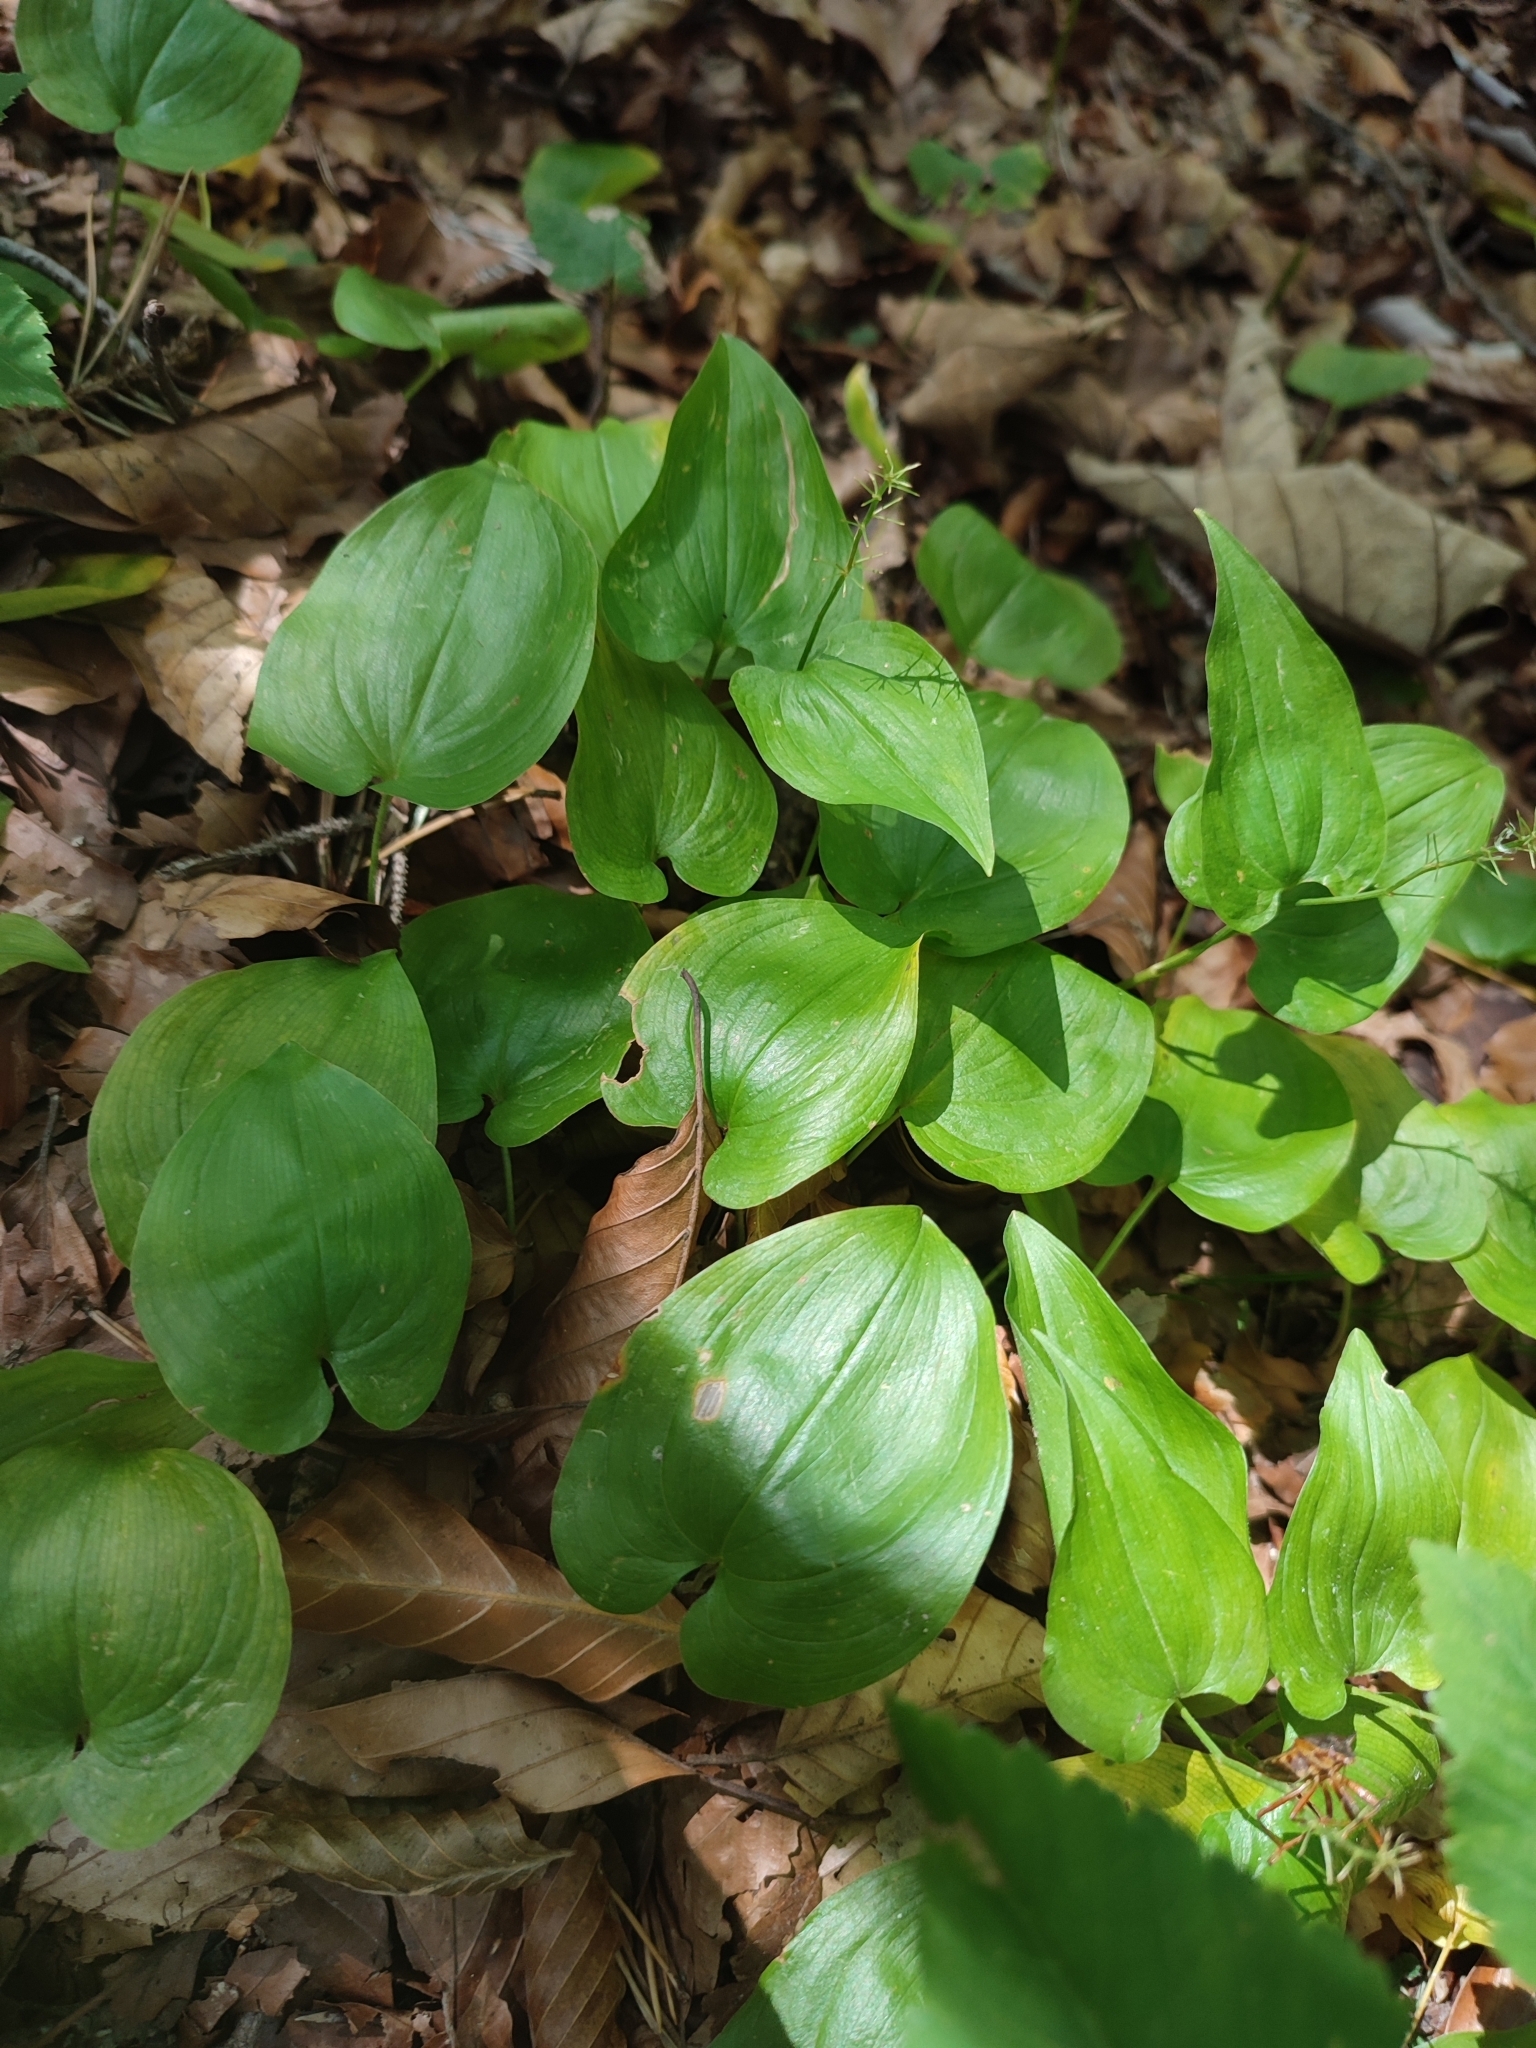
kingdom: Plantae
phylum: Tracheophyta
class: Liliopsida
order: Asparagales
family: Asparagaceae
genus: Maianthemum
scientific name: Maianthemum bifolium
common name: May lily
